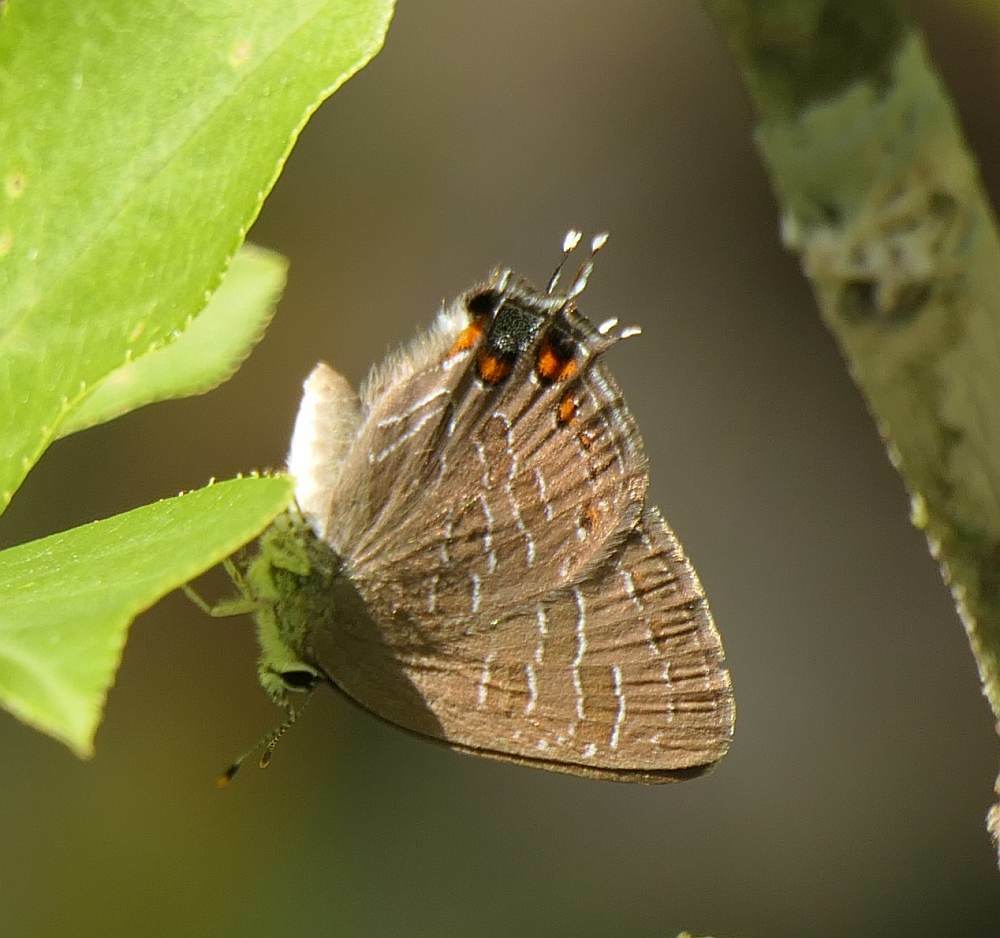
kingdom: Animalia
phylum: Arthropoda
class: Insecta
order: Lepidoptera
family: Lycaenidae
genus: Satyrium
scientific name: Satyrium liparops
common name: Striped hairstreak
